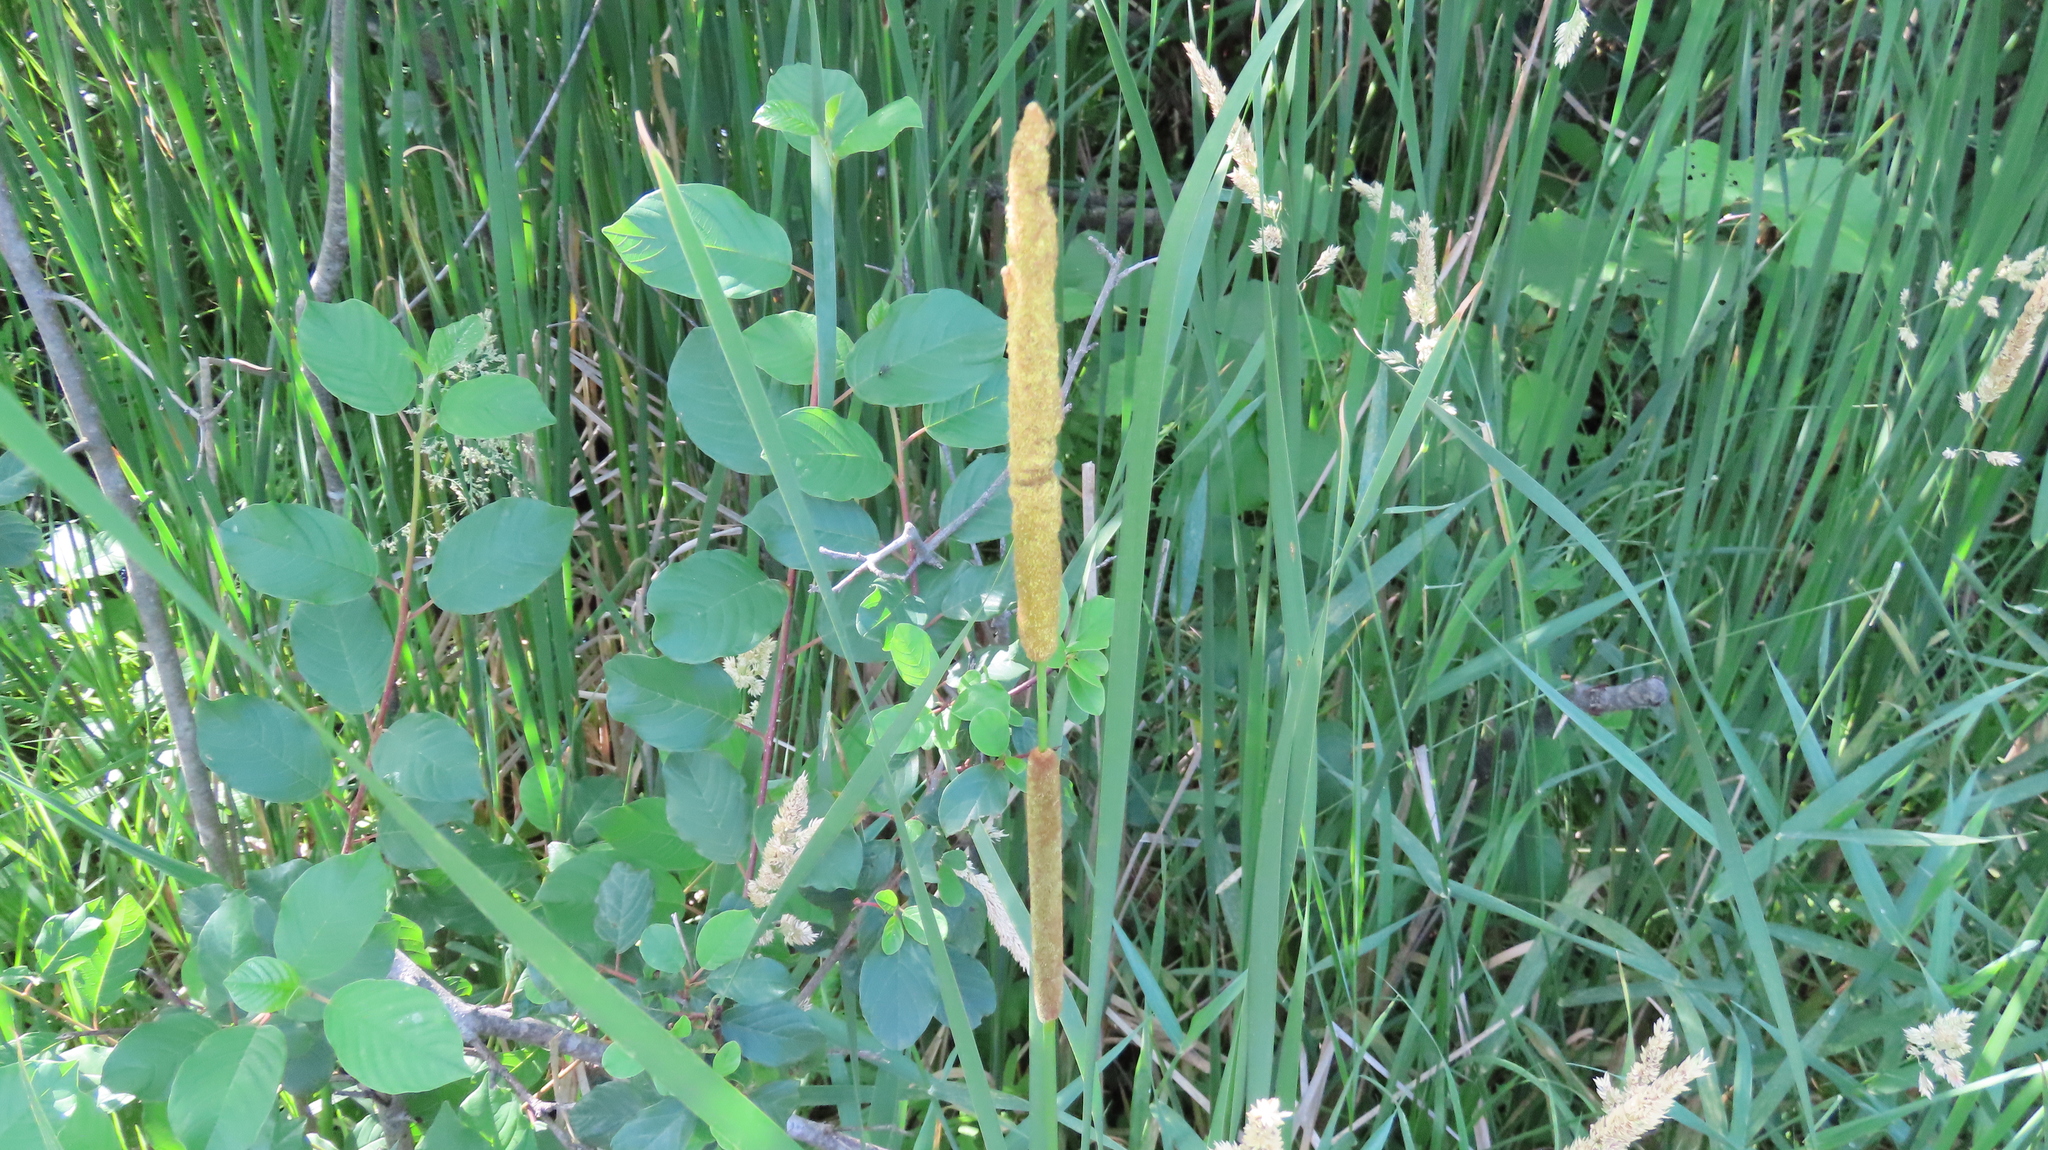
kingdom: Plantae
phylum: Tracheophyta
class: Liliopsida
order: Poales
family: Typhaceae
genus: Typha
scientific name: Typha angustifolia
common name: Lesser bulrush
